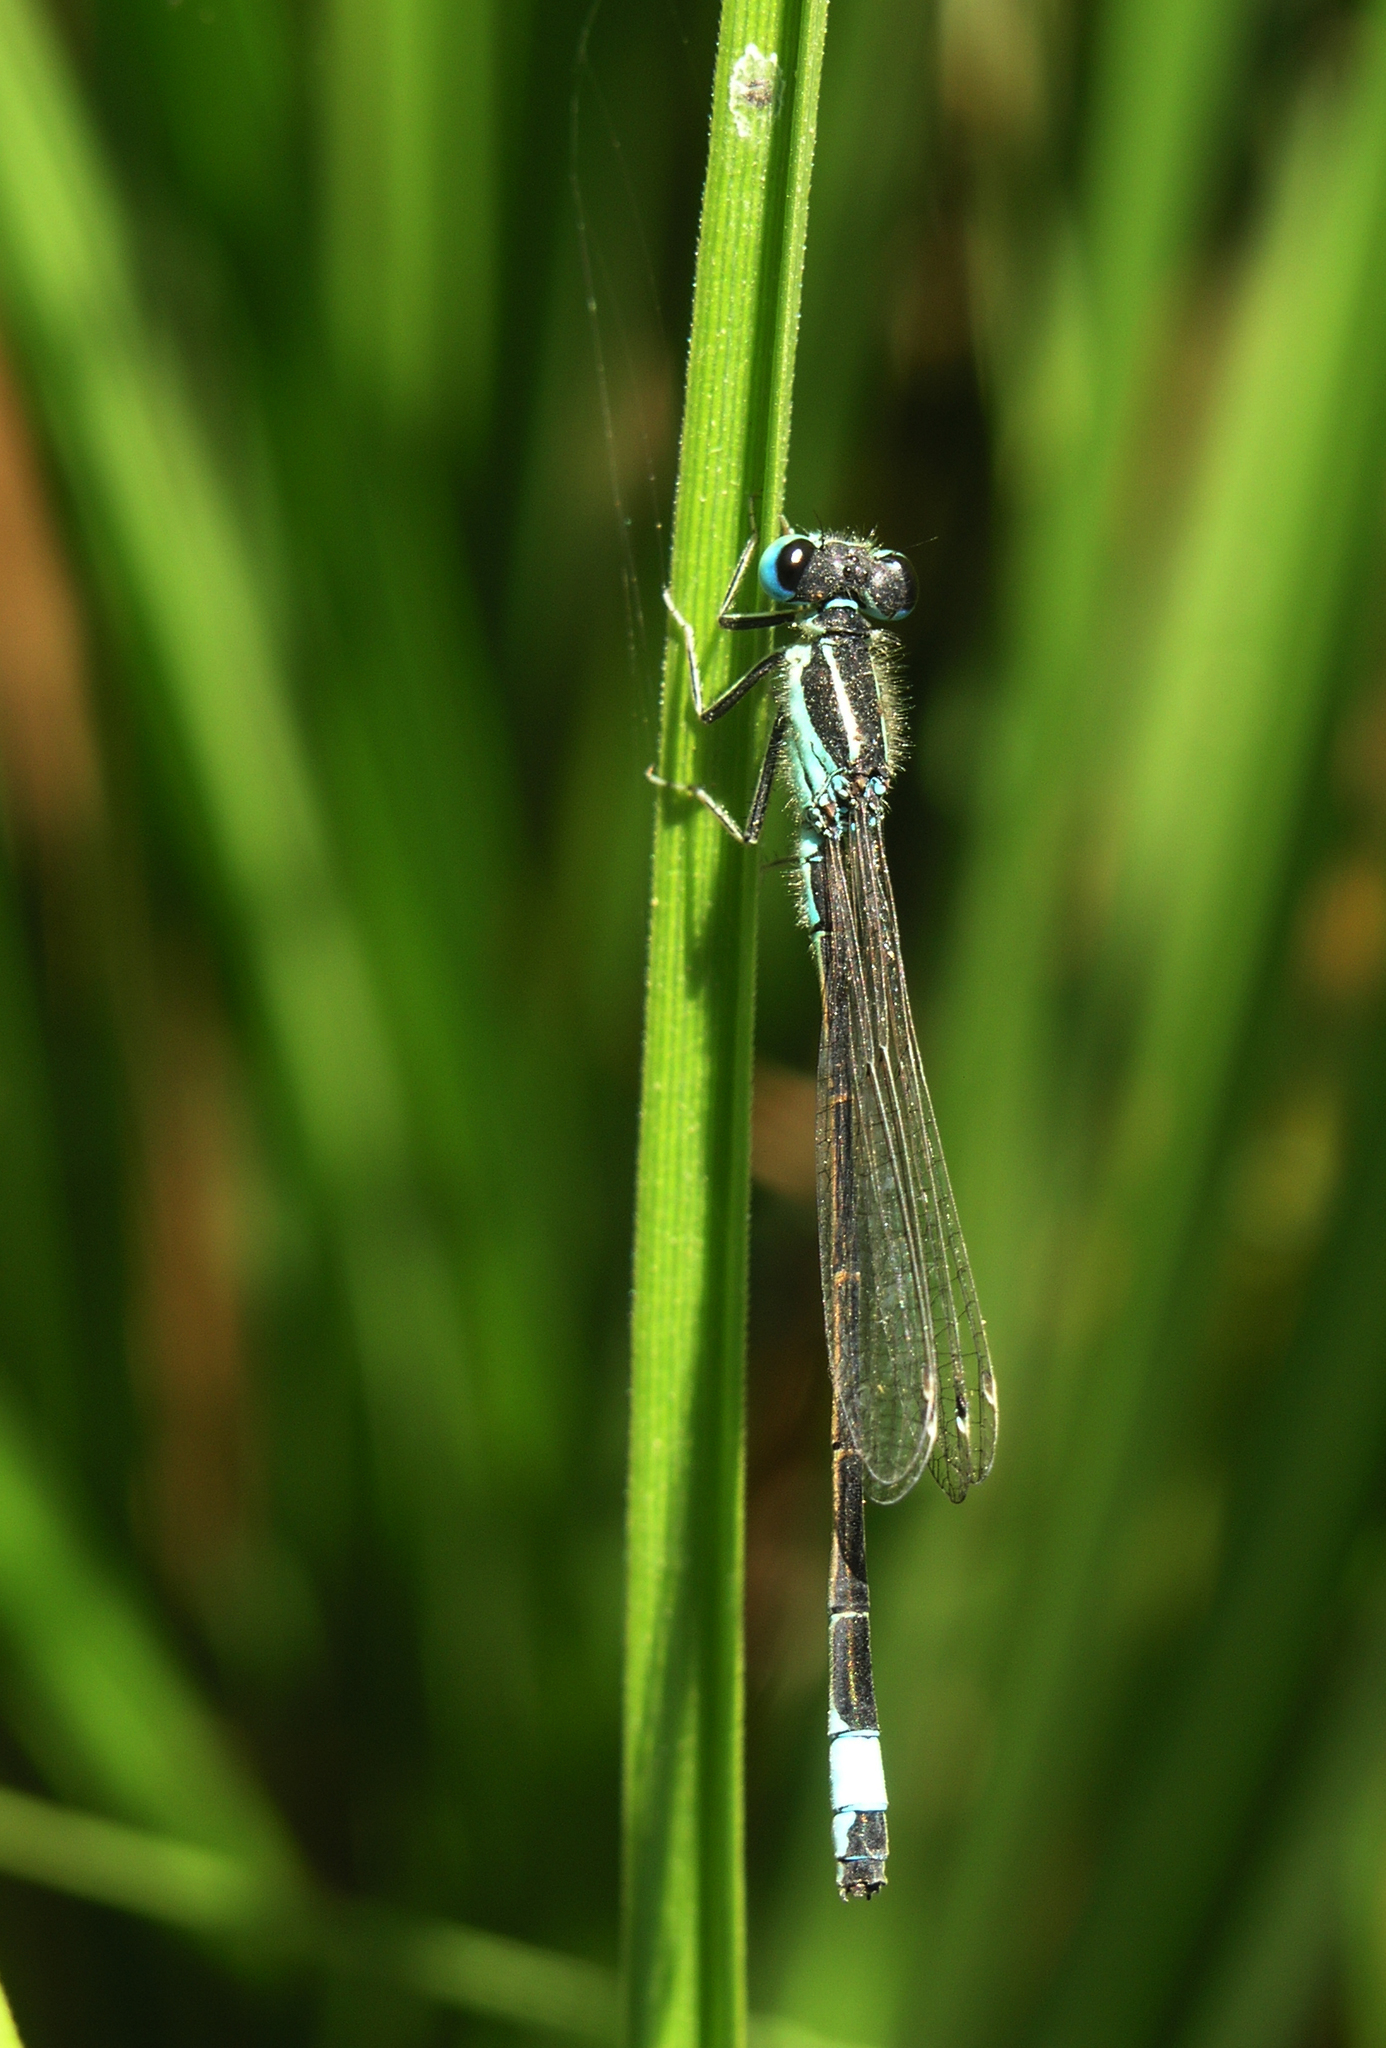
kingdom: Animalia
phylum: Arthropoda
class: Insecta
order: Odonata
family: Coenagrionidae
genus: Ischnura
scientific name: Ischnura graellsii
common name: Iberian bluetail
